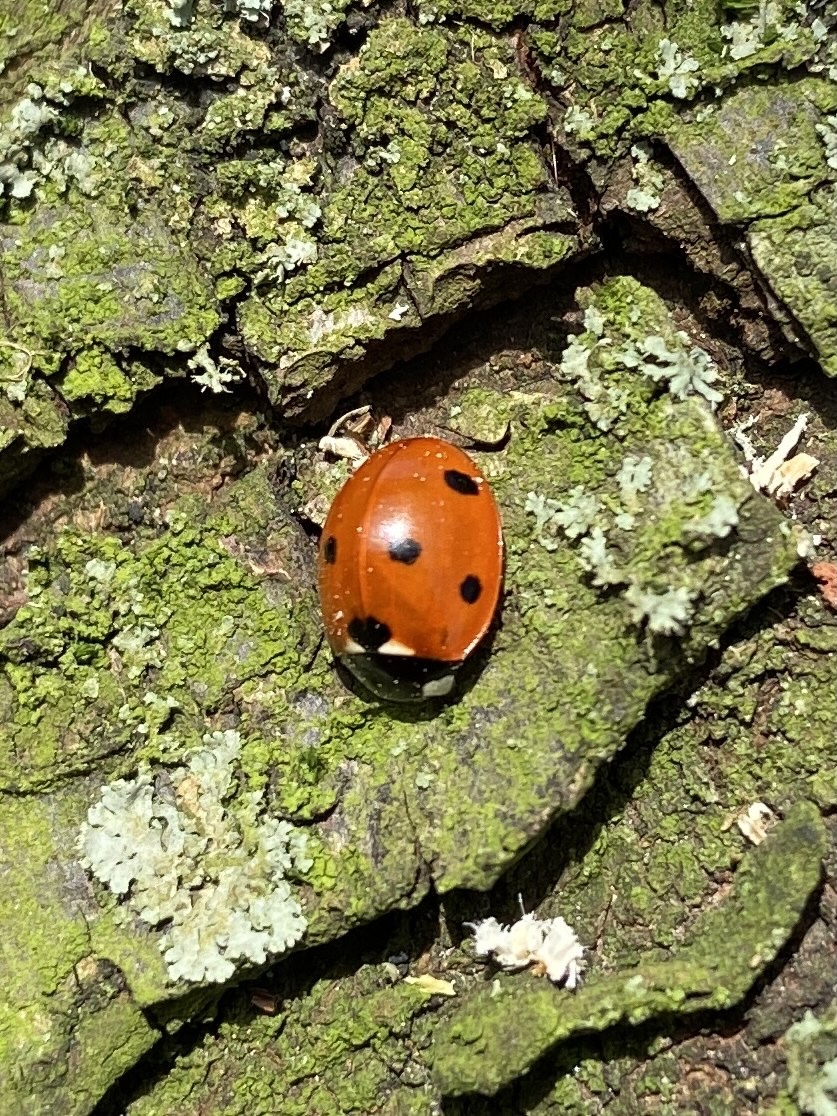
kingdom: Animalia
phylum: Arthropoda
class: Insecta
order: Coleoptera
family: Coccinellidae
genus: Coccinella
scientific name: Coccinella septempunctata
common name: Sevenspotted lady beetle
